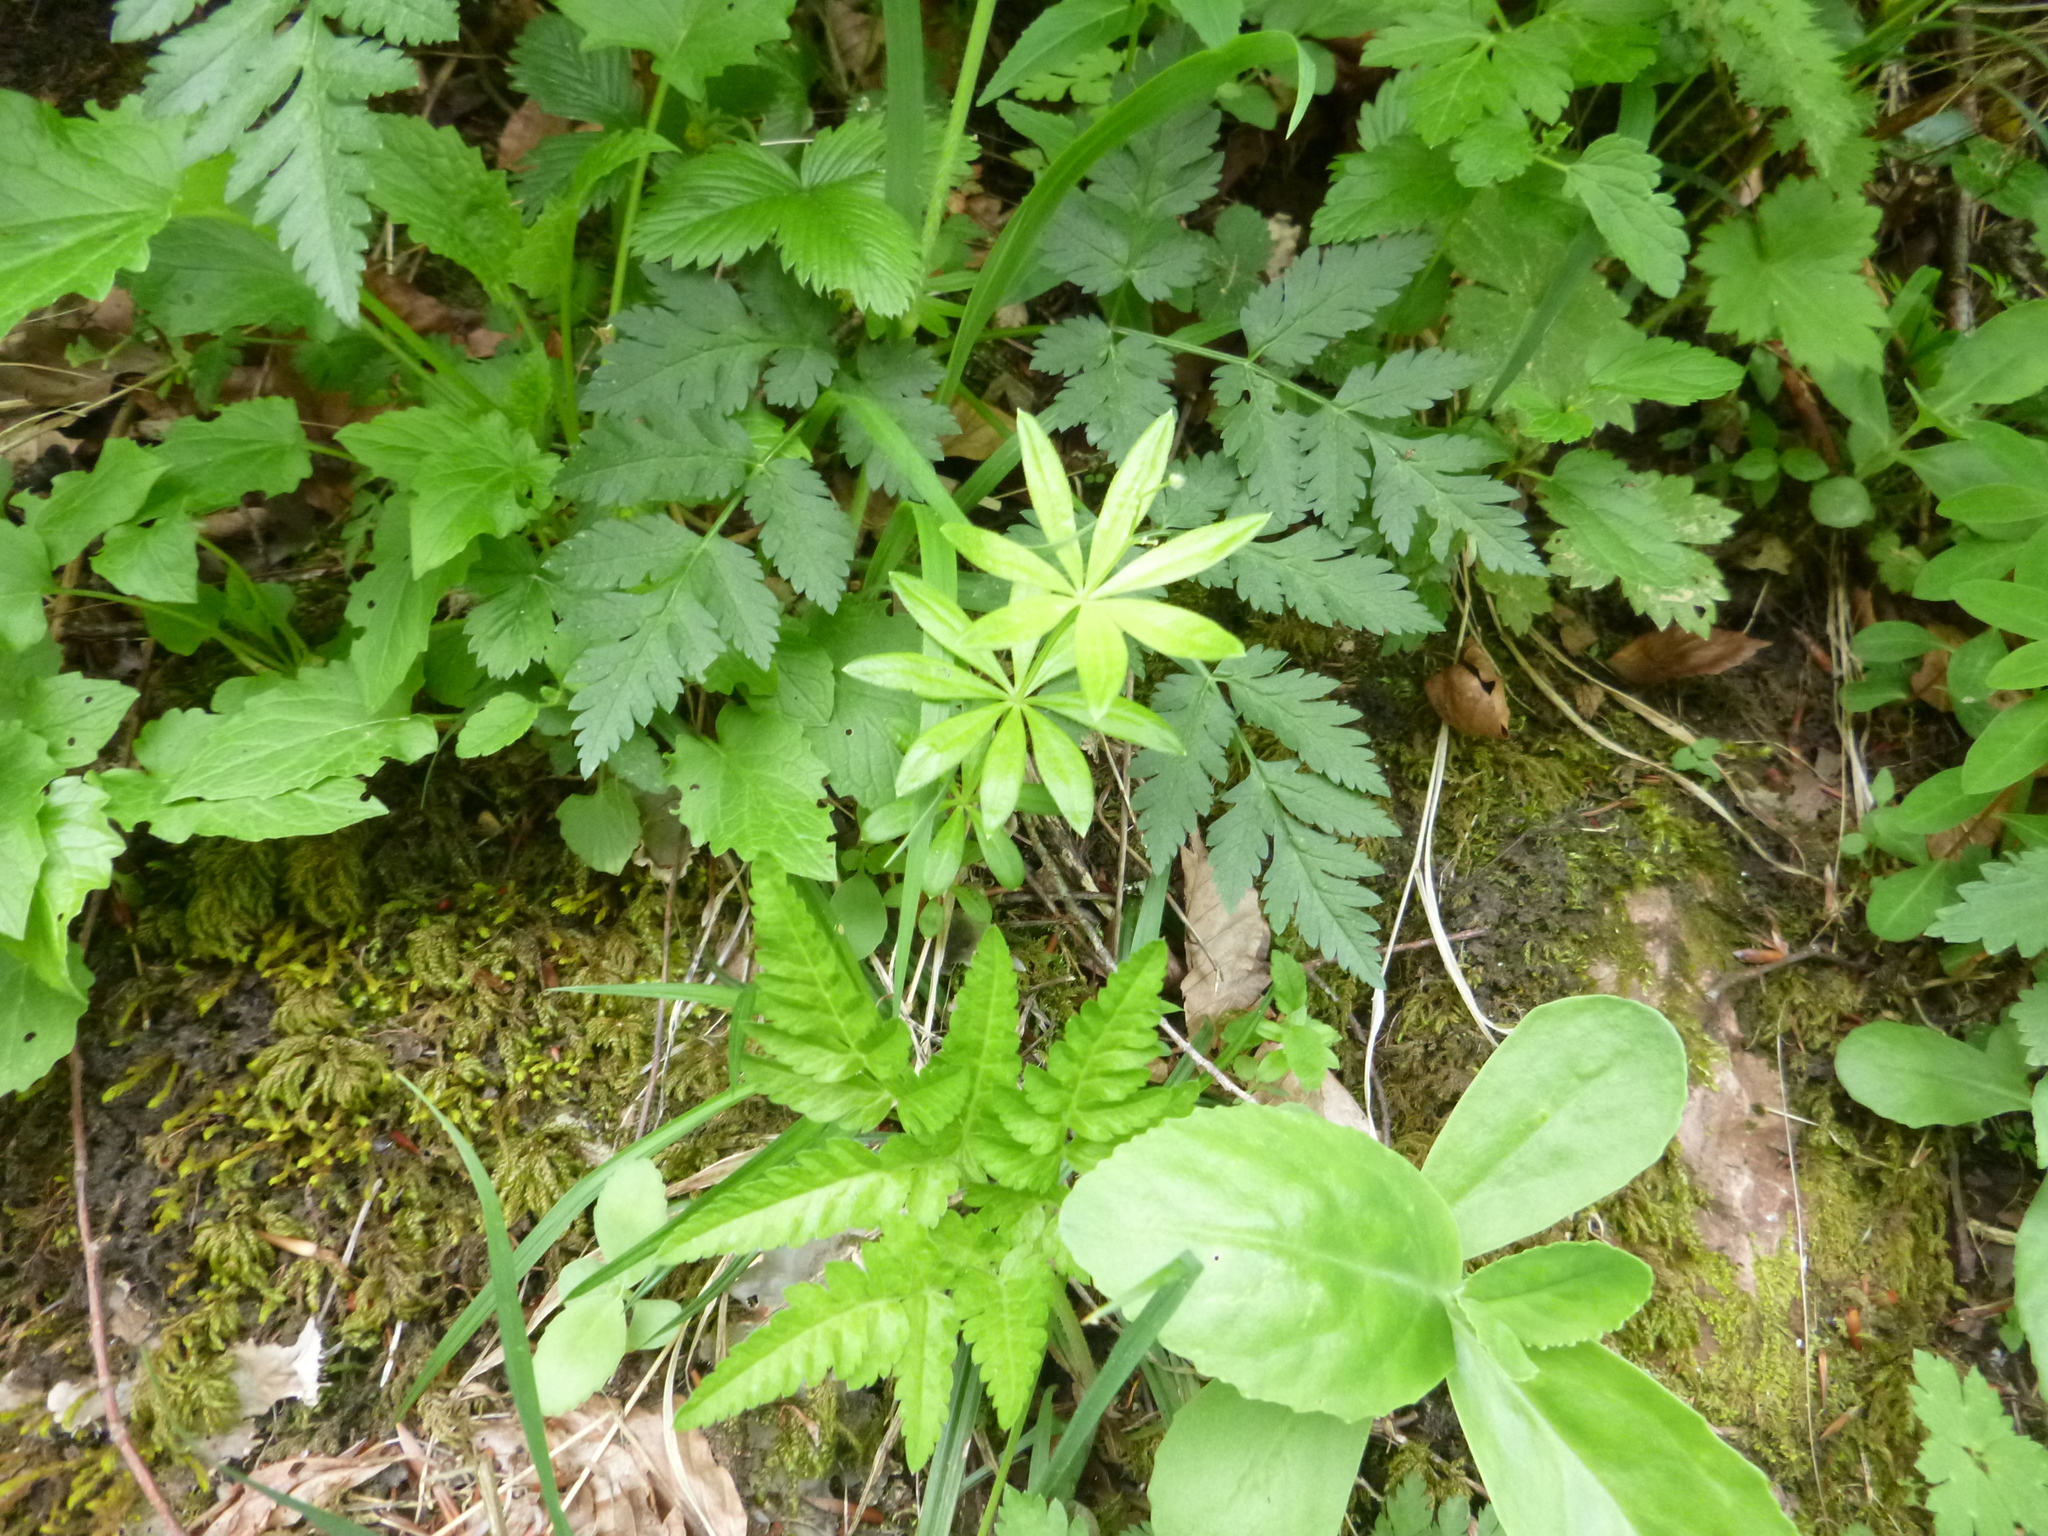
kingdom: Plantae
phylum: Tracheophyta
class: Magnoliopsida
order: Gentianales
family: Rubiaceae
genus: Galium
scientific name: Galium odoratum
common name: Sweet woodruff
